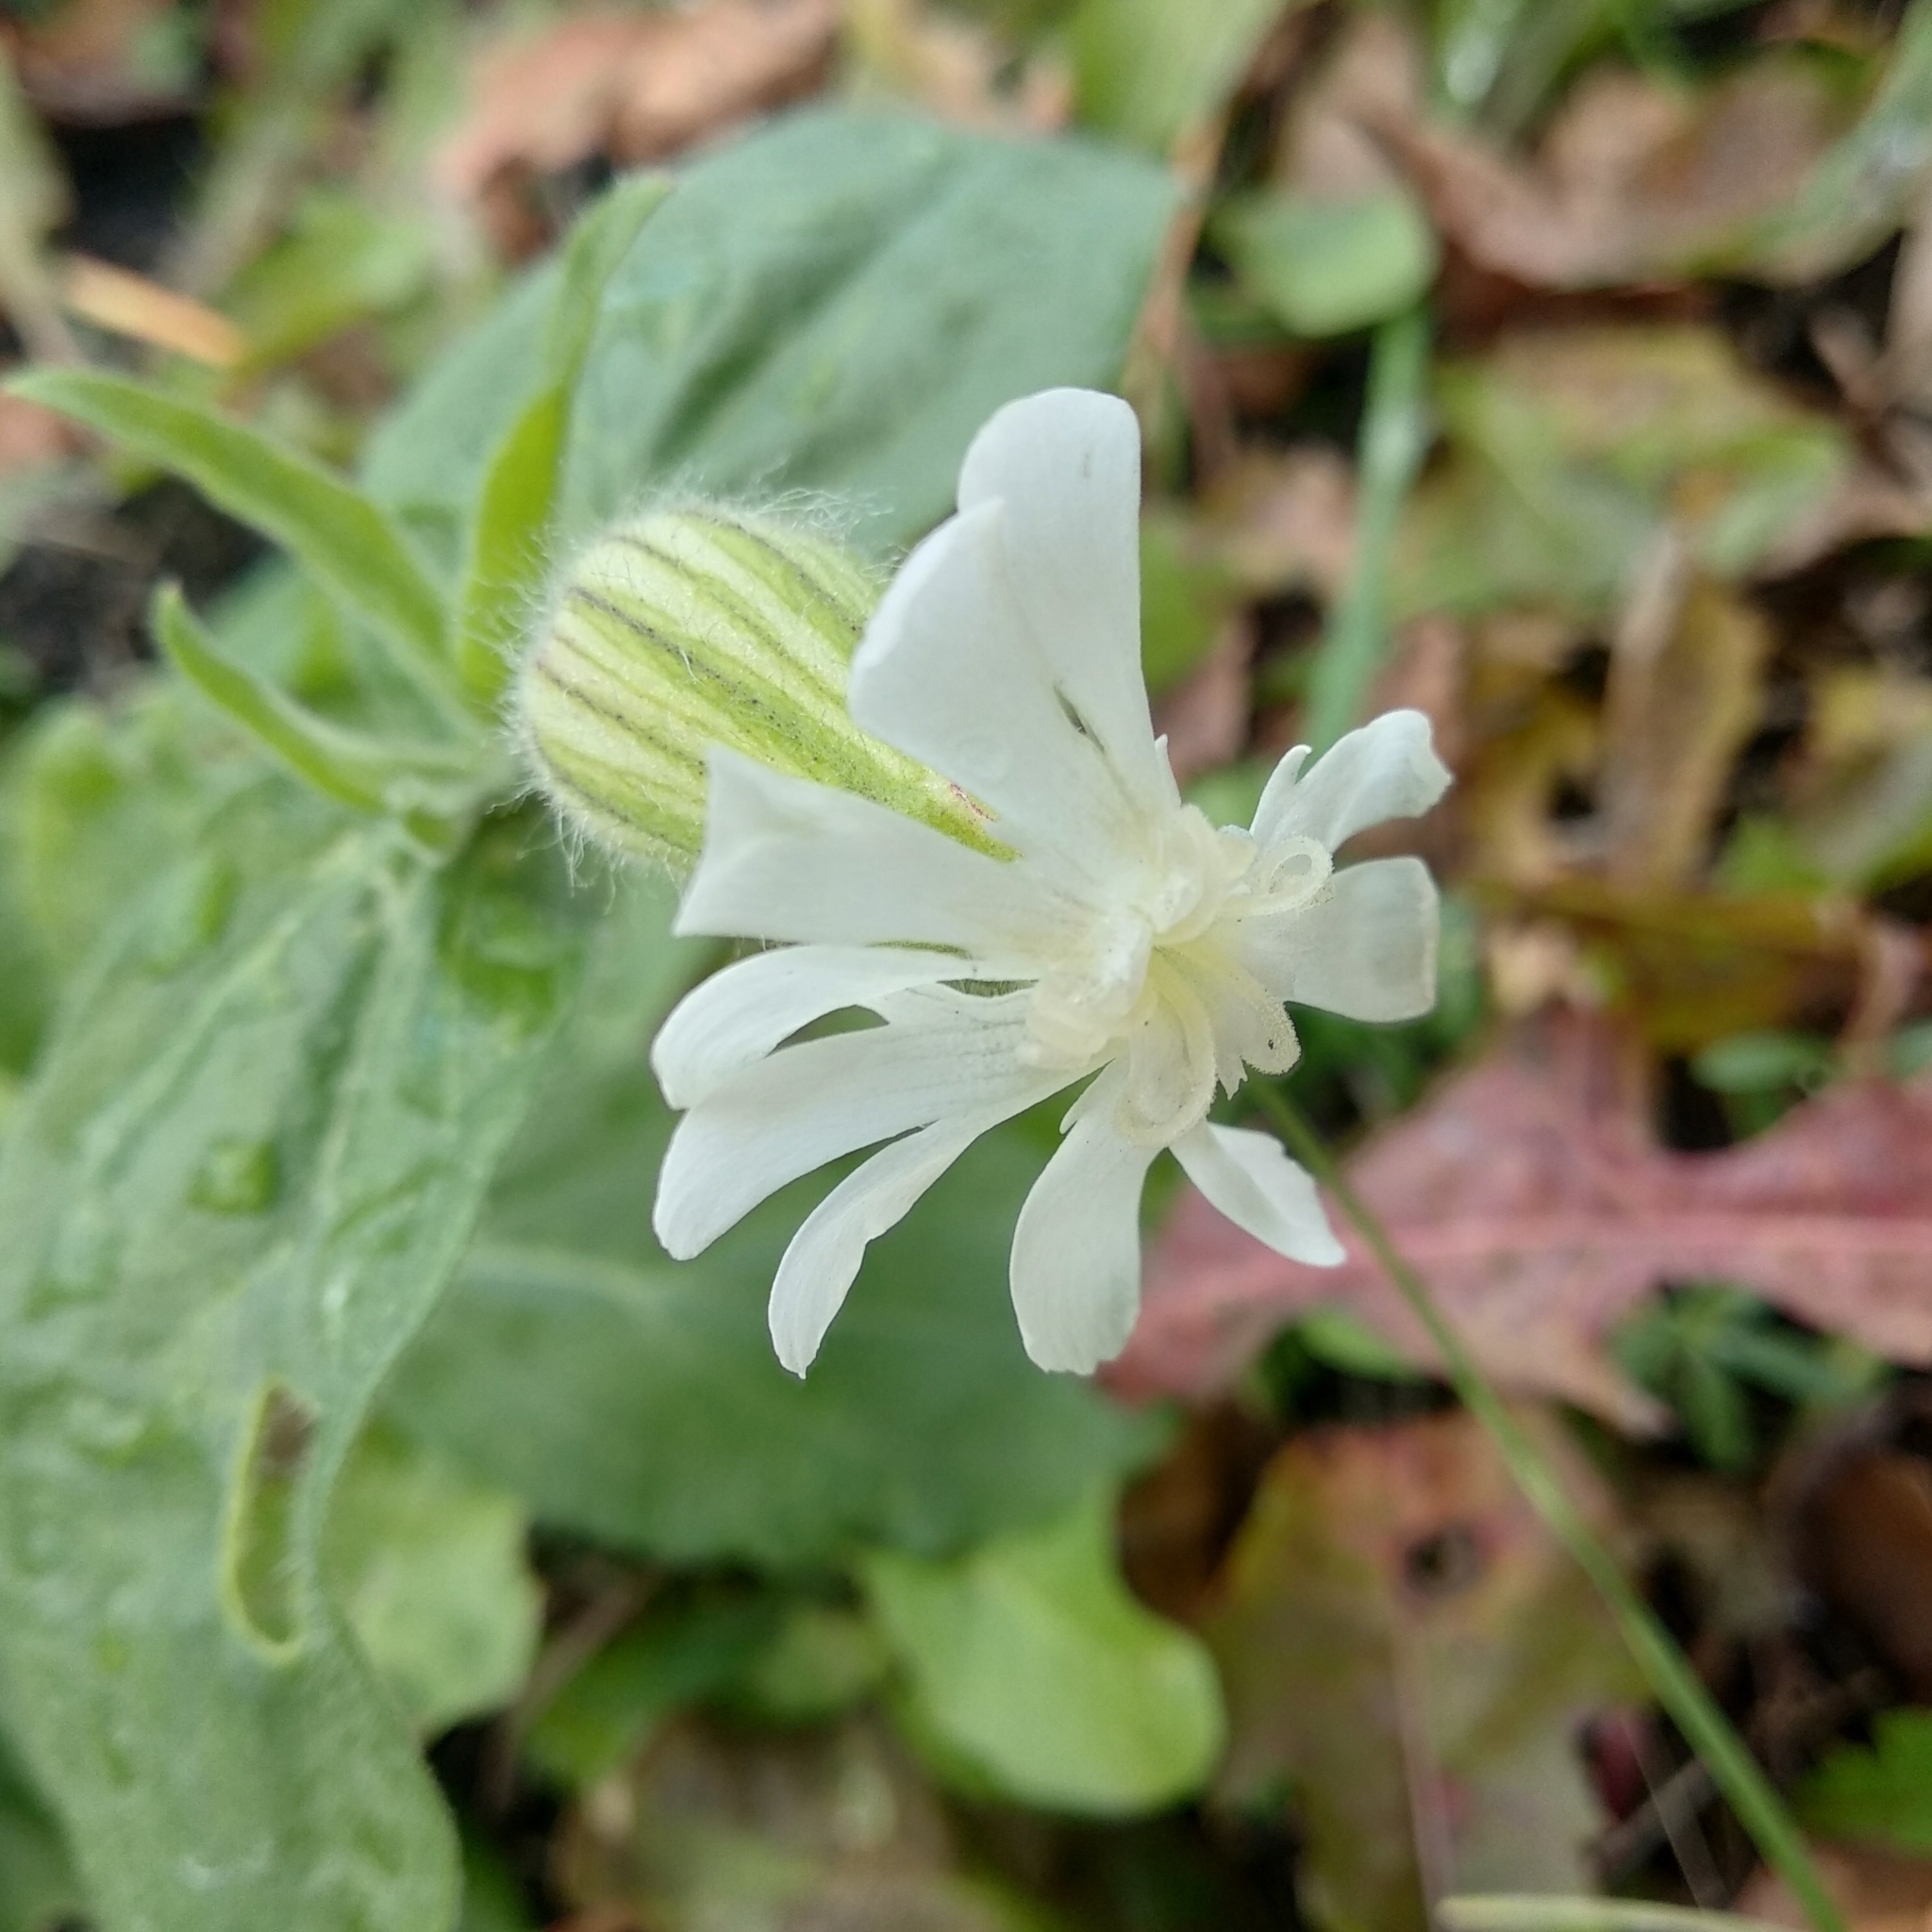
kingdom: Plantae
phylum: Tracheophyta
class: Magnoliopsida
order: Caryophyllales
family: Caryophyllaceae
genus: Silene
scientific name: Silene latifolia
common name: White campion
